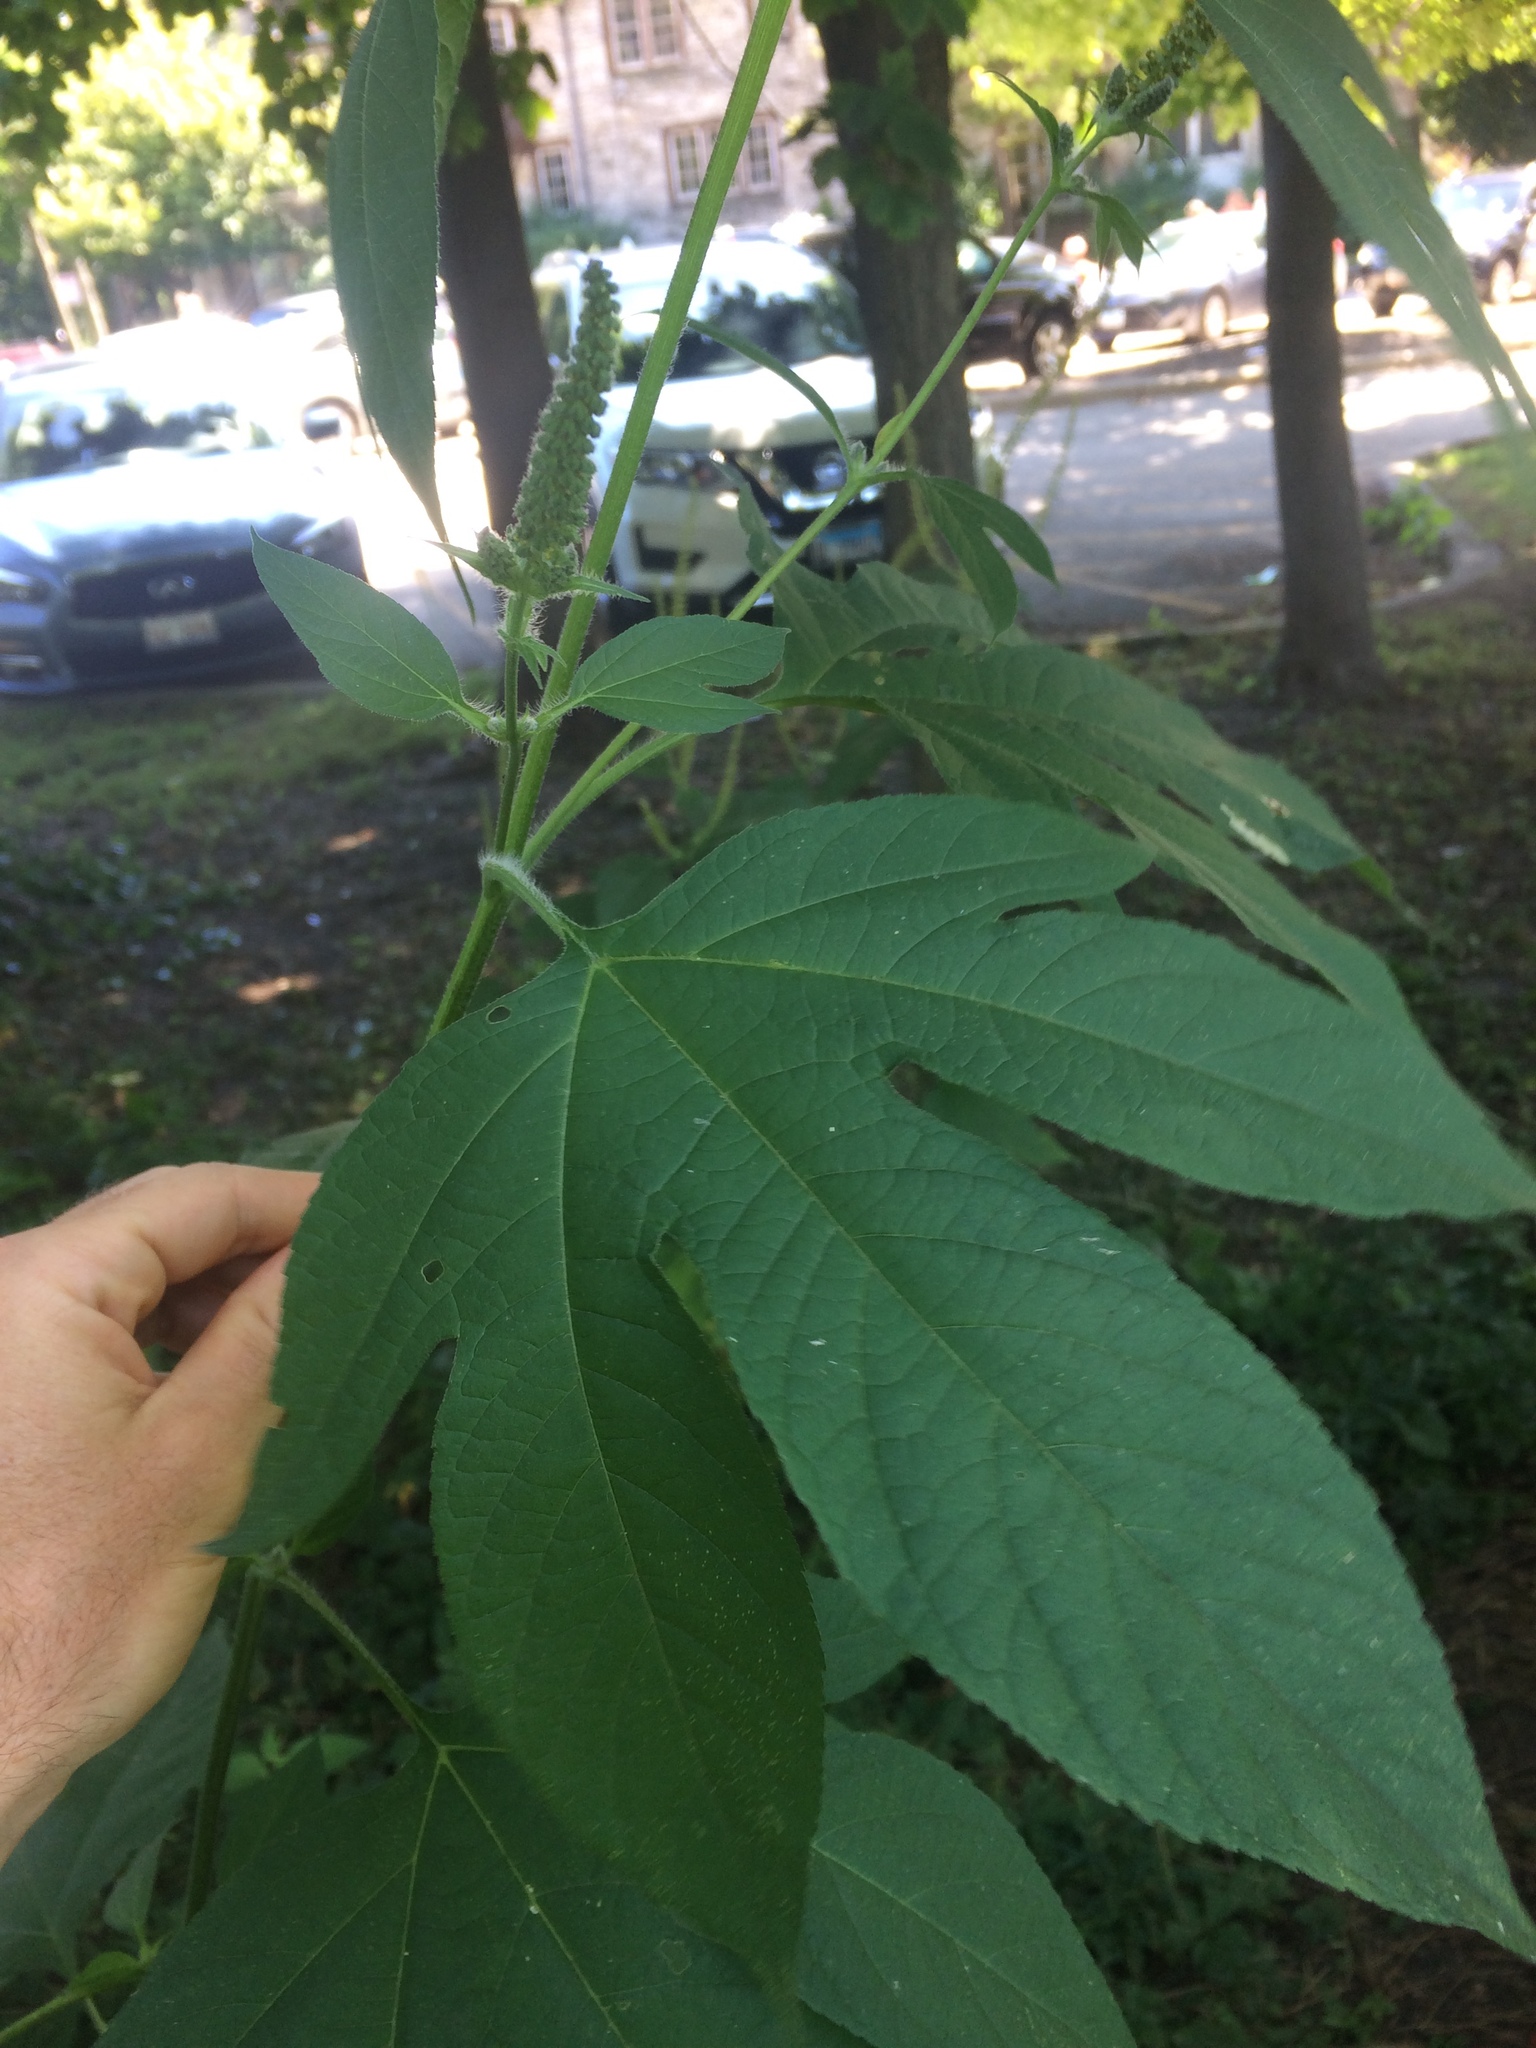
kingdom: Plantae
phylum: Tracheophyta
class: Magnoliopsida
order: Asterales
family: Asteraceae
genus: Ambrosia
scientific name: Ambrosia trifida
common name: Giant ragweed
